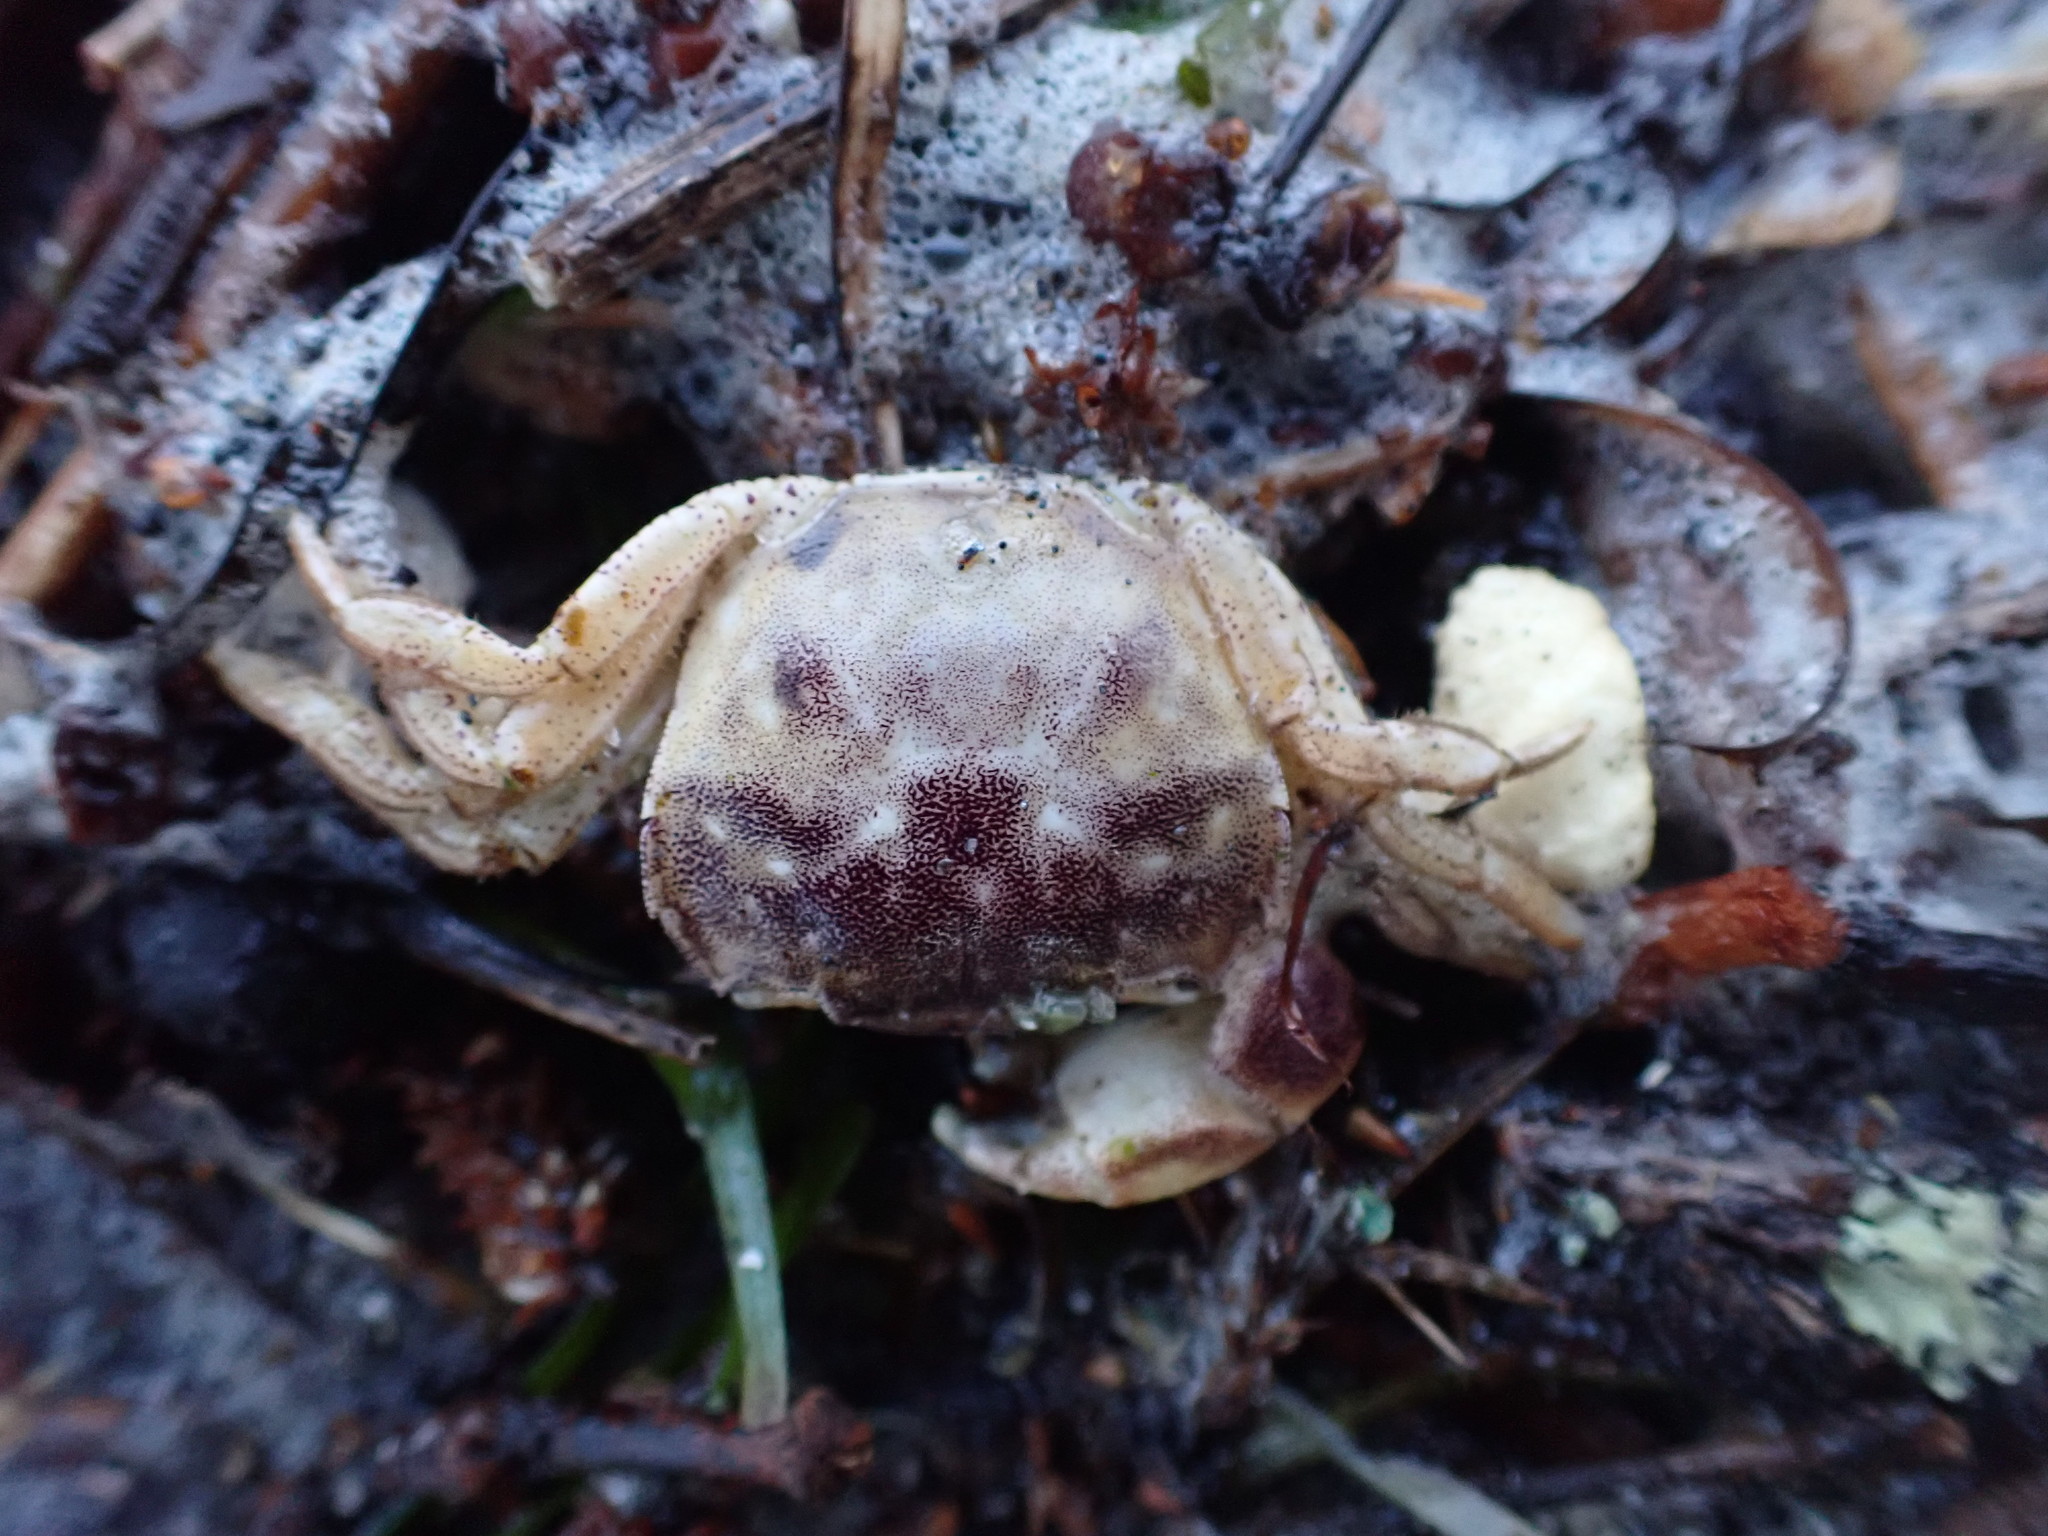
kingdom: Animalia
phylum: Arthropoda
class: Malacostraca
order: Decapoda
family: Varunidae
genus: Hemigrapsus
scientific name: Hemigrapsus crenulatus
